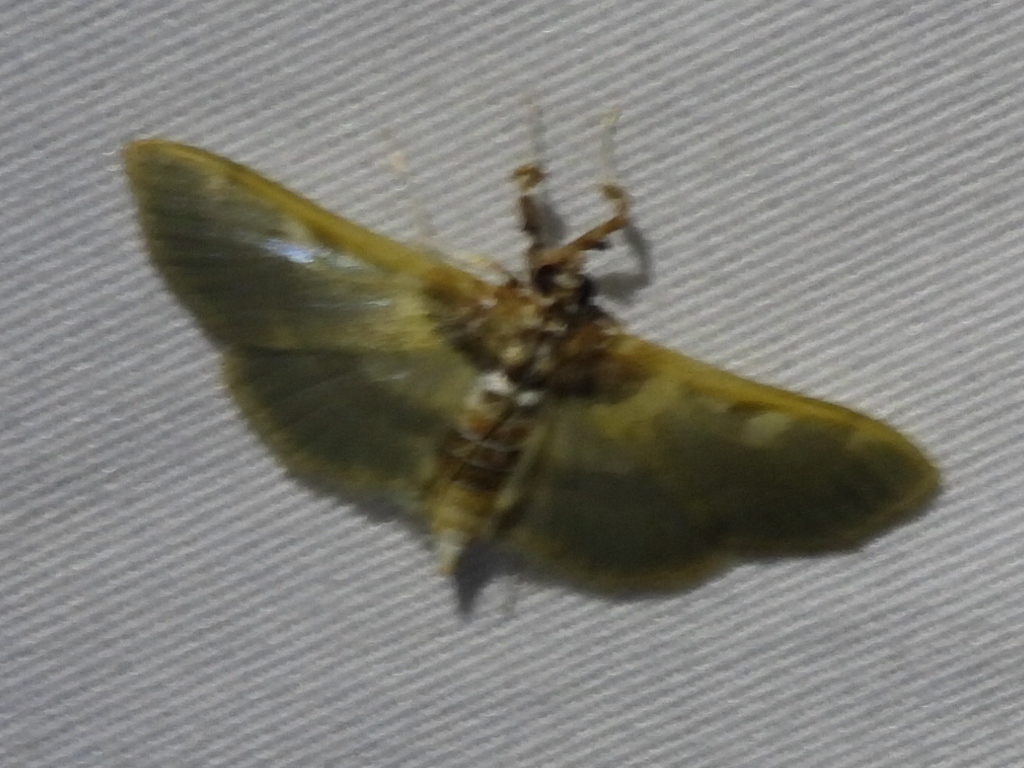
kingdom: Animalia
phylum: Arthropoda
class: Insecta
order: Lepidoptera
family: Crambidae
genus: Apilocrocis
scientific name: Apilocrocis brumalis
